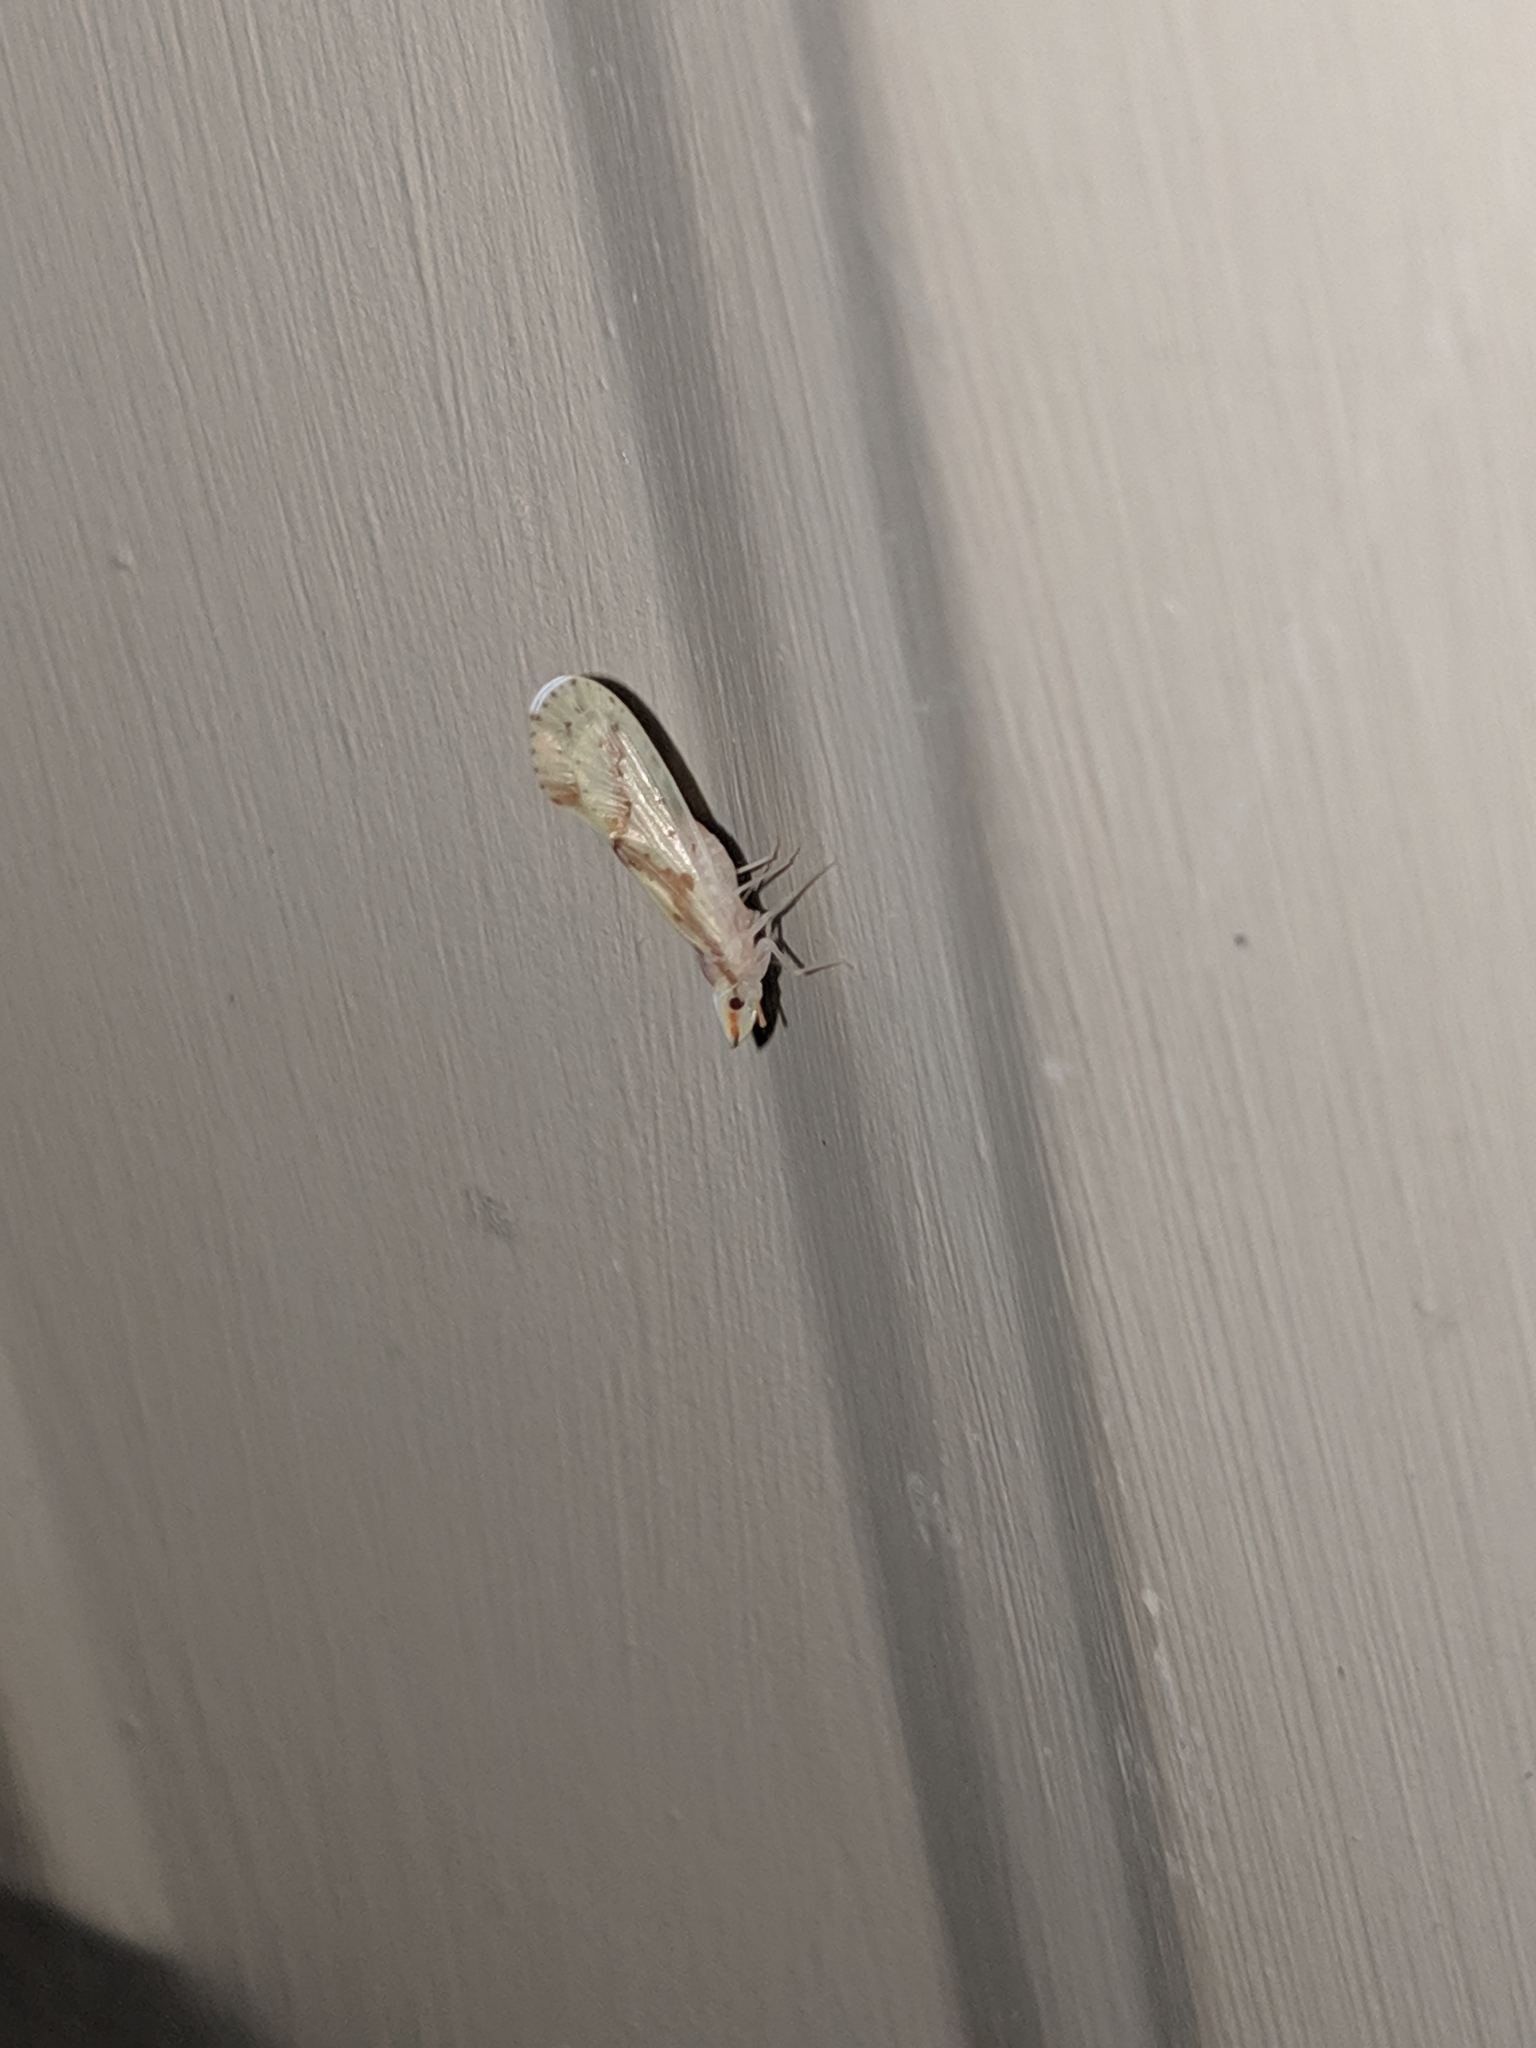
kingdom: Animalia
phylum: Arthropoda
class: Insecta
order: Hemiptera
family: Derbidae
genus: Otiocerus
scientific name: Otiocerus wolfii
